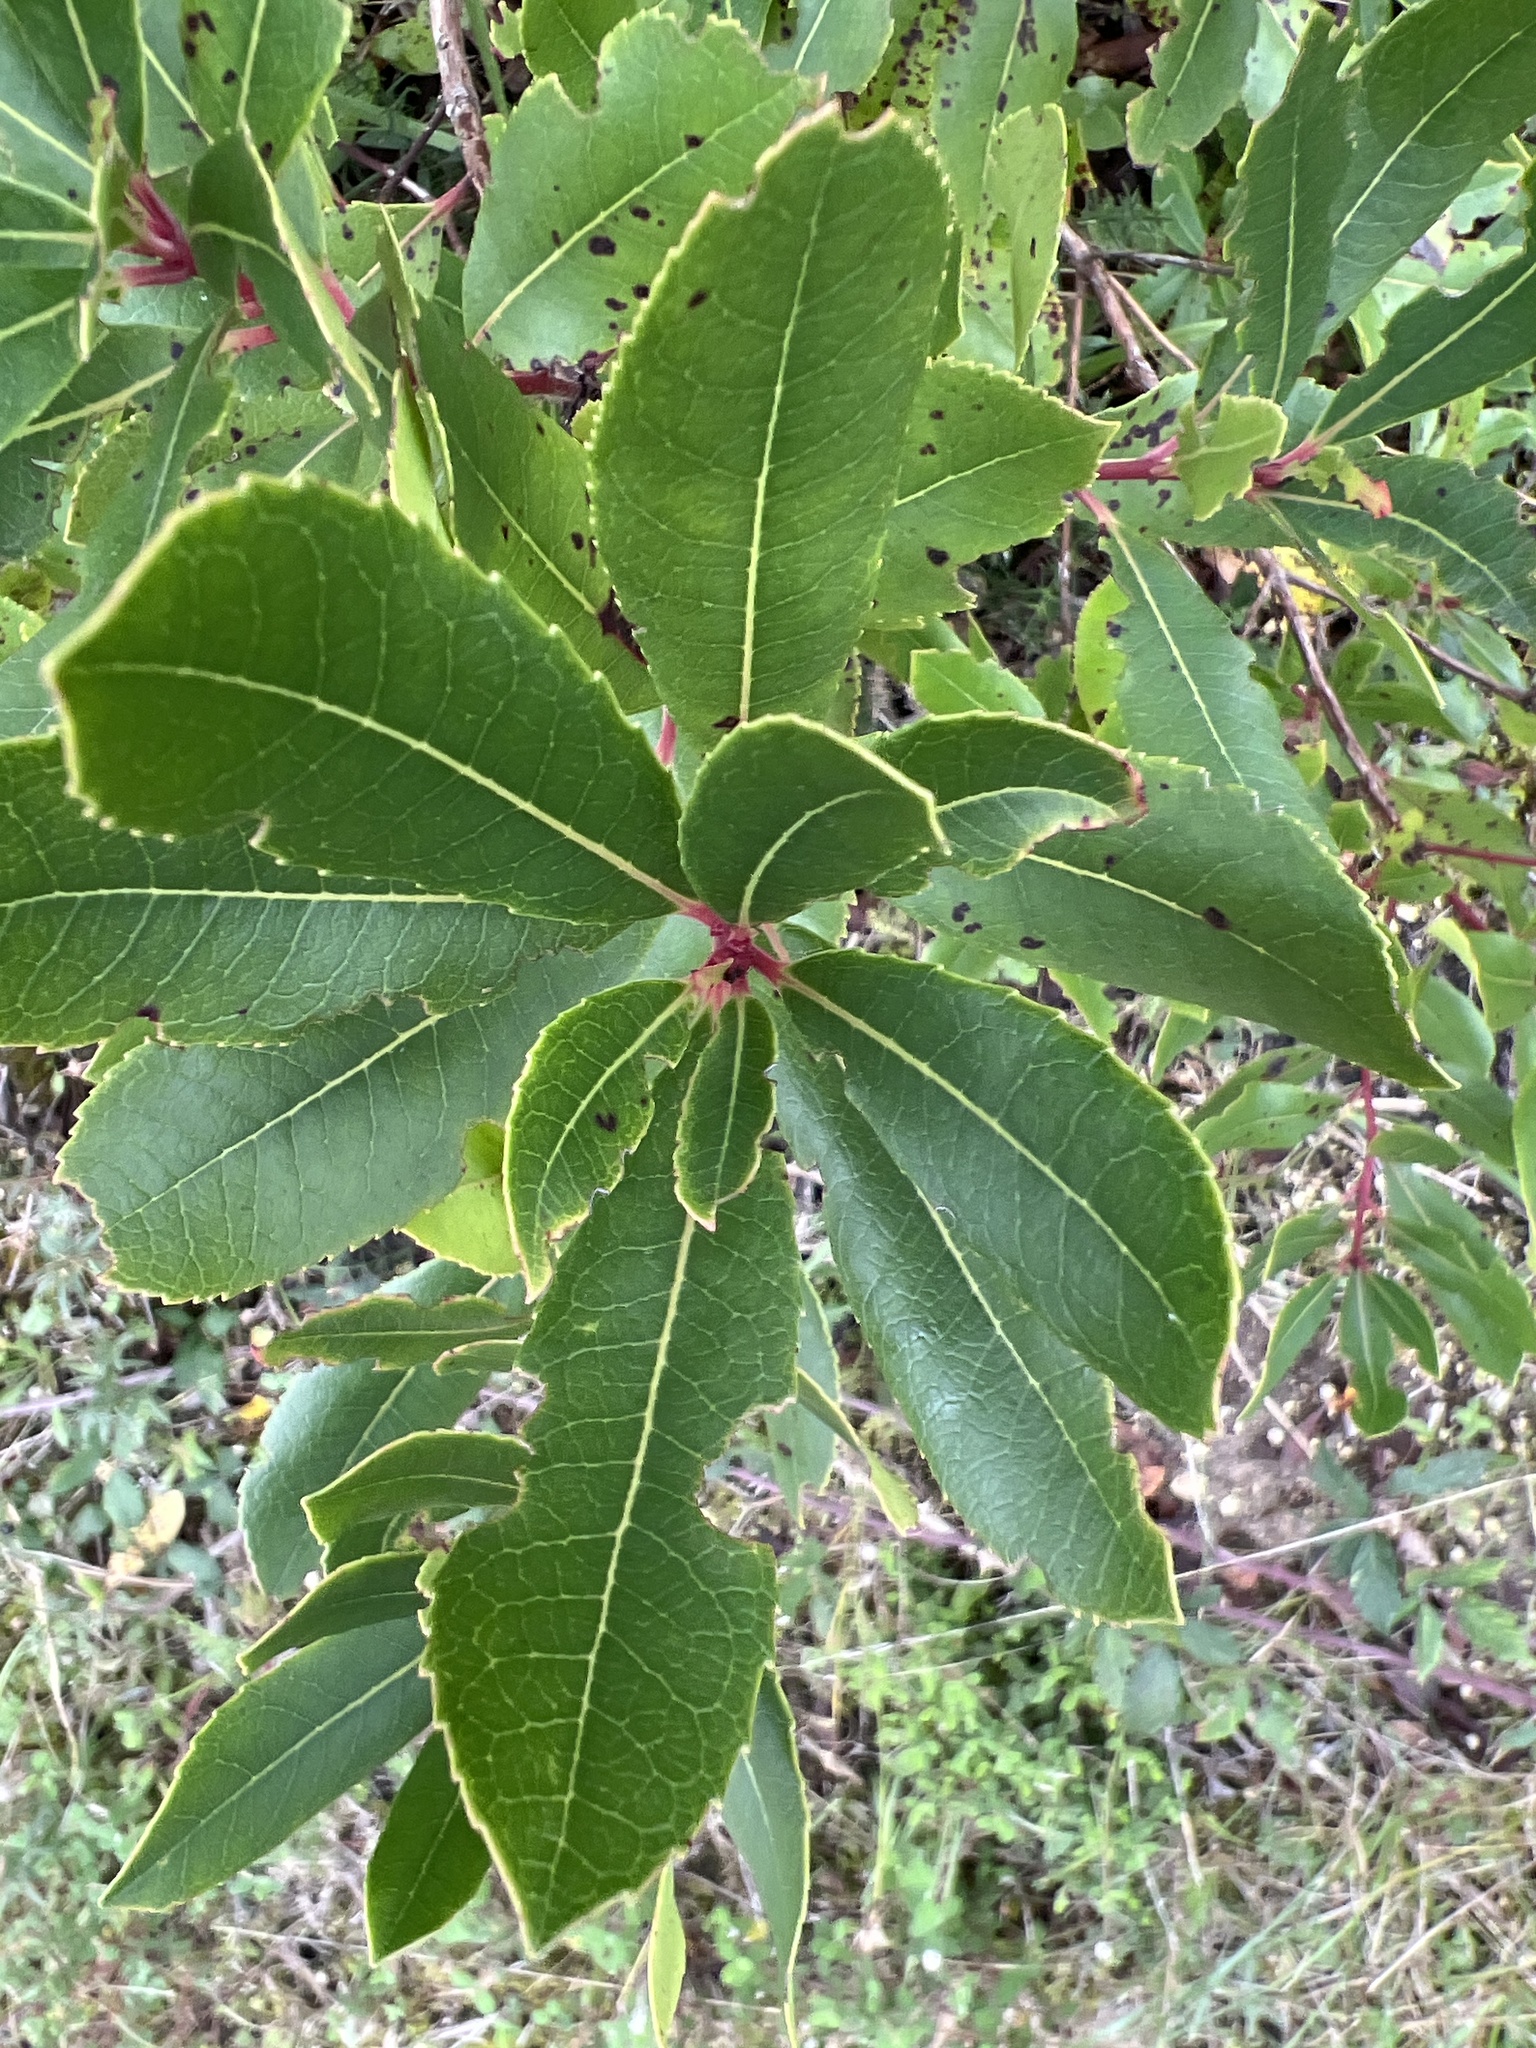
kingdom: Plantae
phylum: Tracheophyta
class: Magnoliopsida
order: Ericales
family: Ericaceae
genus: Arbutus
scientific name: Arbutus unedo
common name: Strawberry-tree
